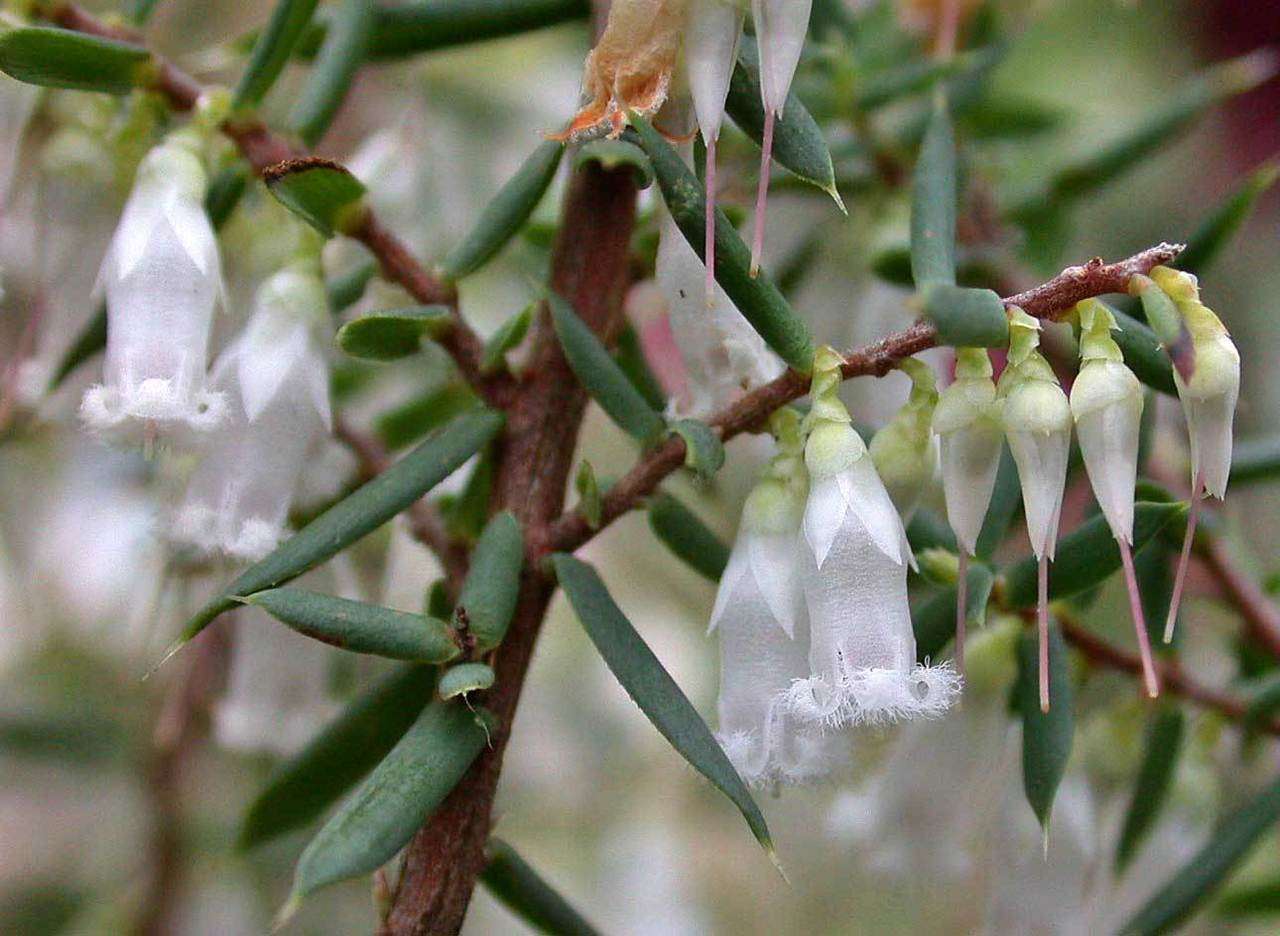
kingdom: Plantae
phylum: Tracheophyta
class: Magnoliopsida
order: Ericales
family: Ericaceae
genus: Styphelia
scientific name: Styphelia fletcheri
